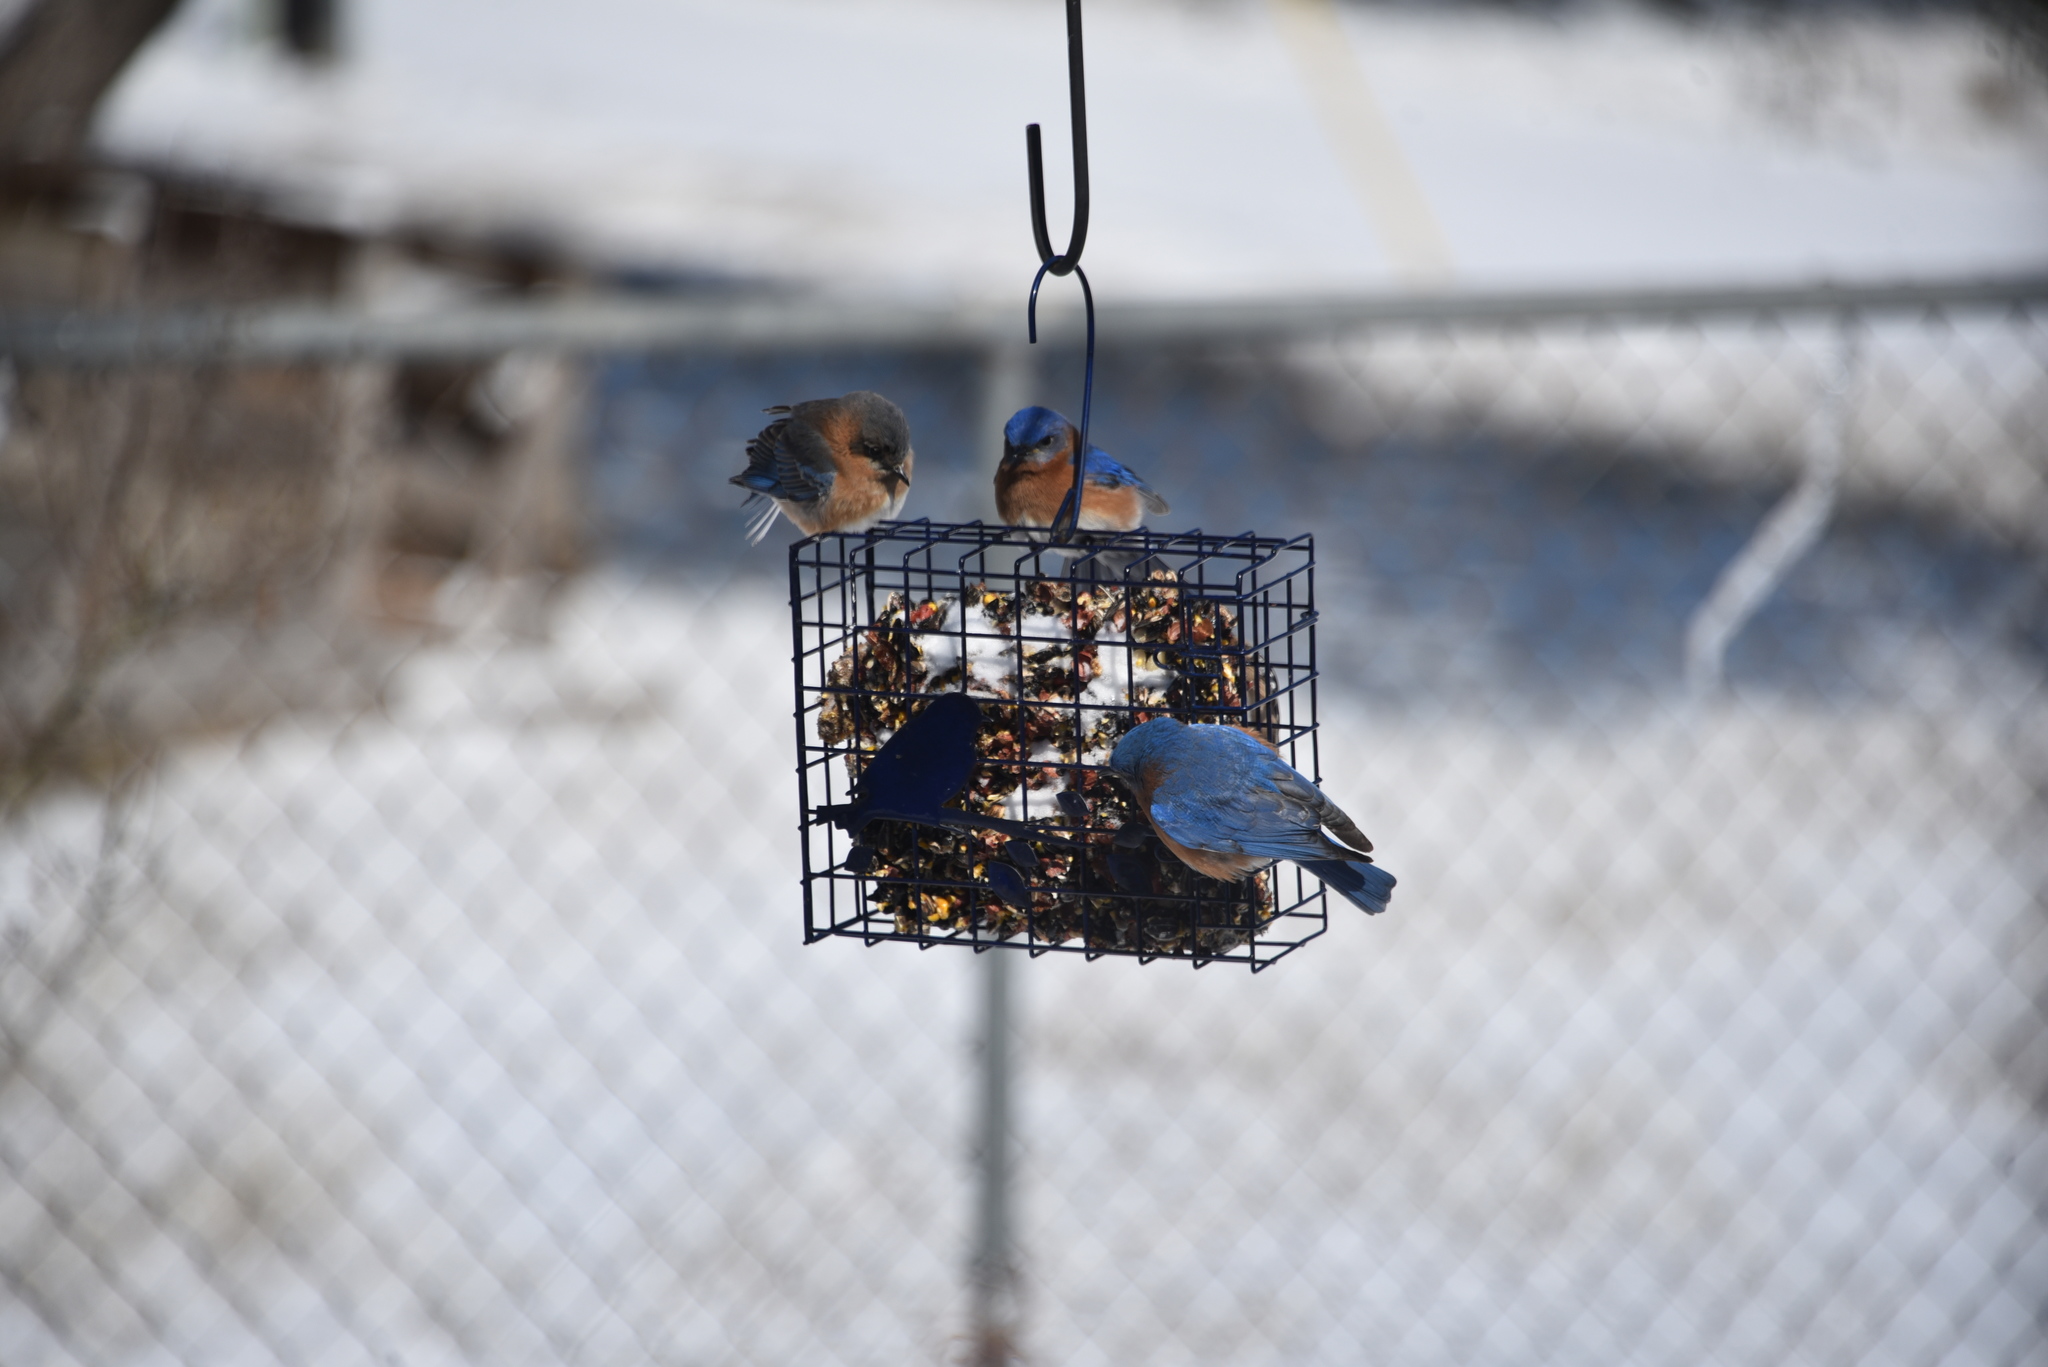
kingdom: Animalia
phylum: Chordata
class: Aves
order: Passeriformes
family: Turdidae
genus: Sialia
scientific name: Sialia sialis
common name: Eastern bluebird
